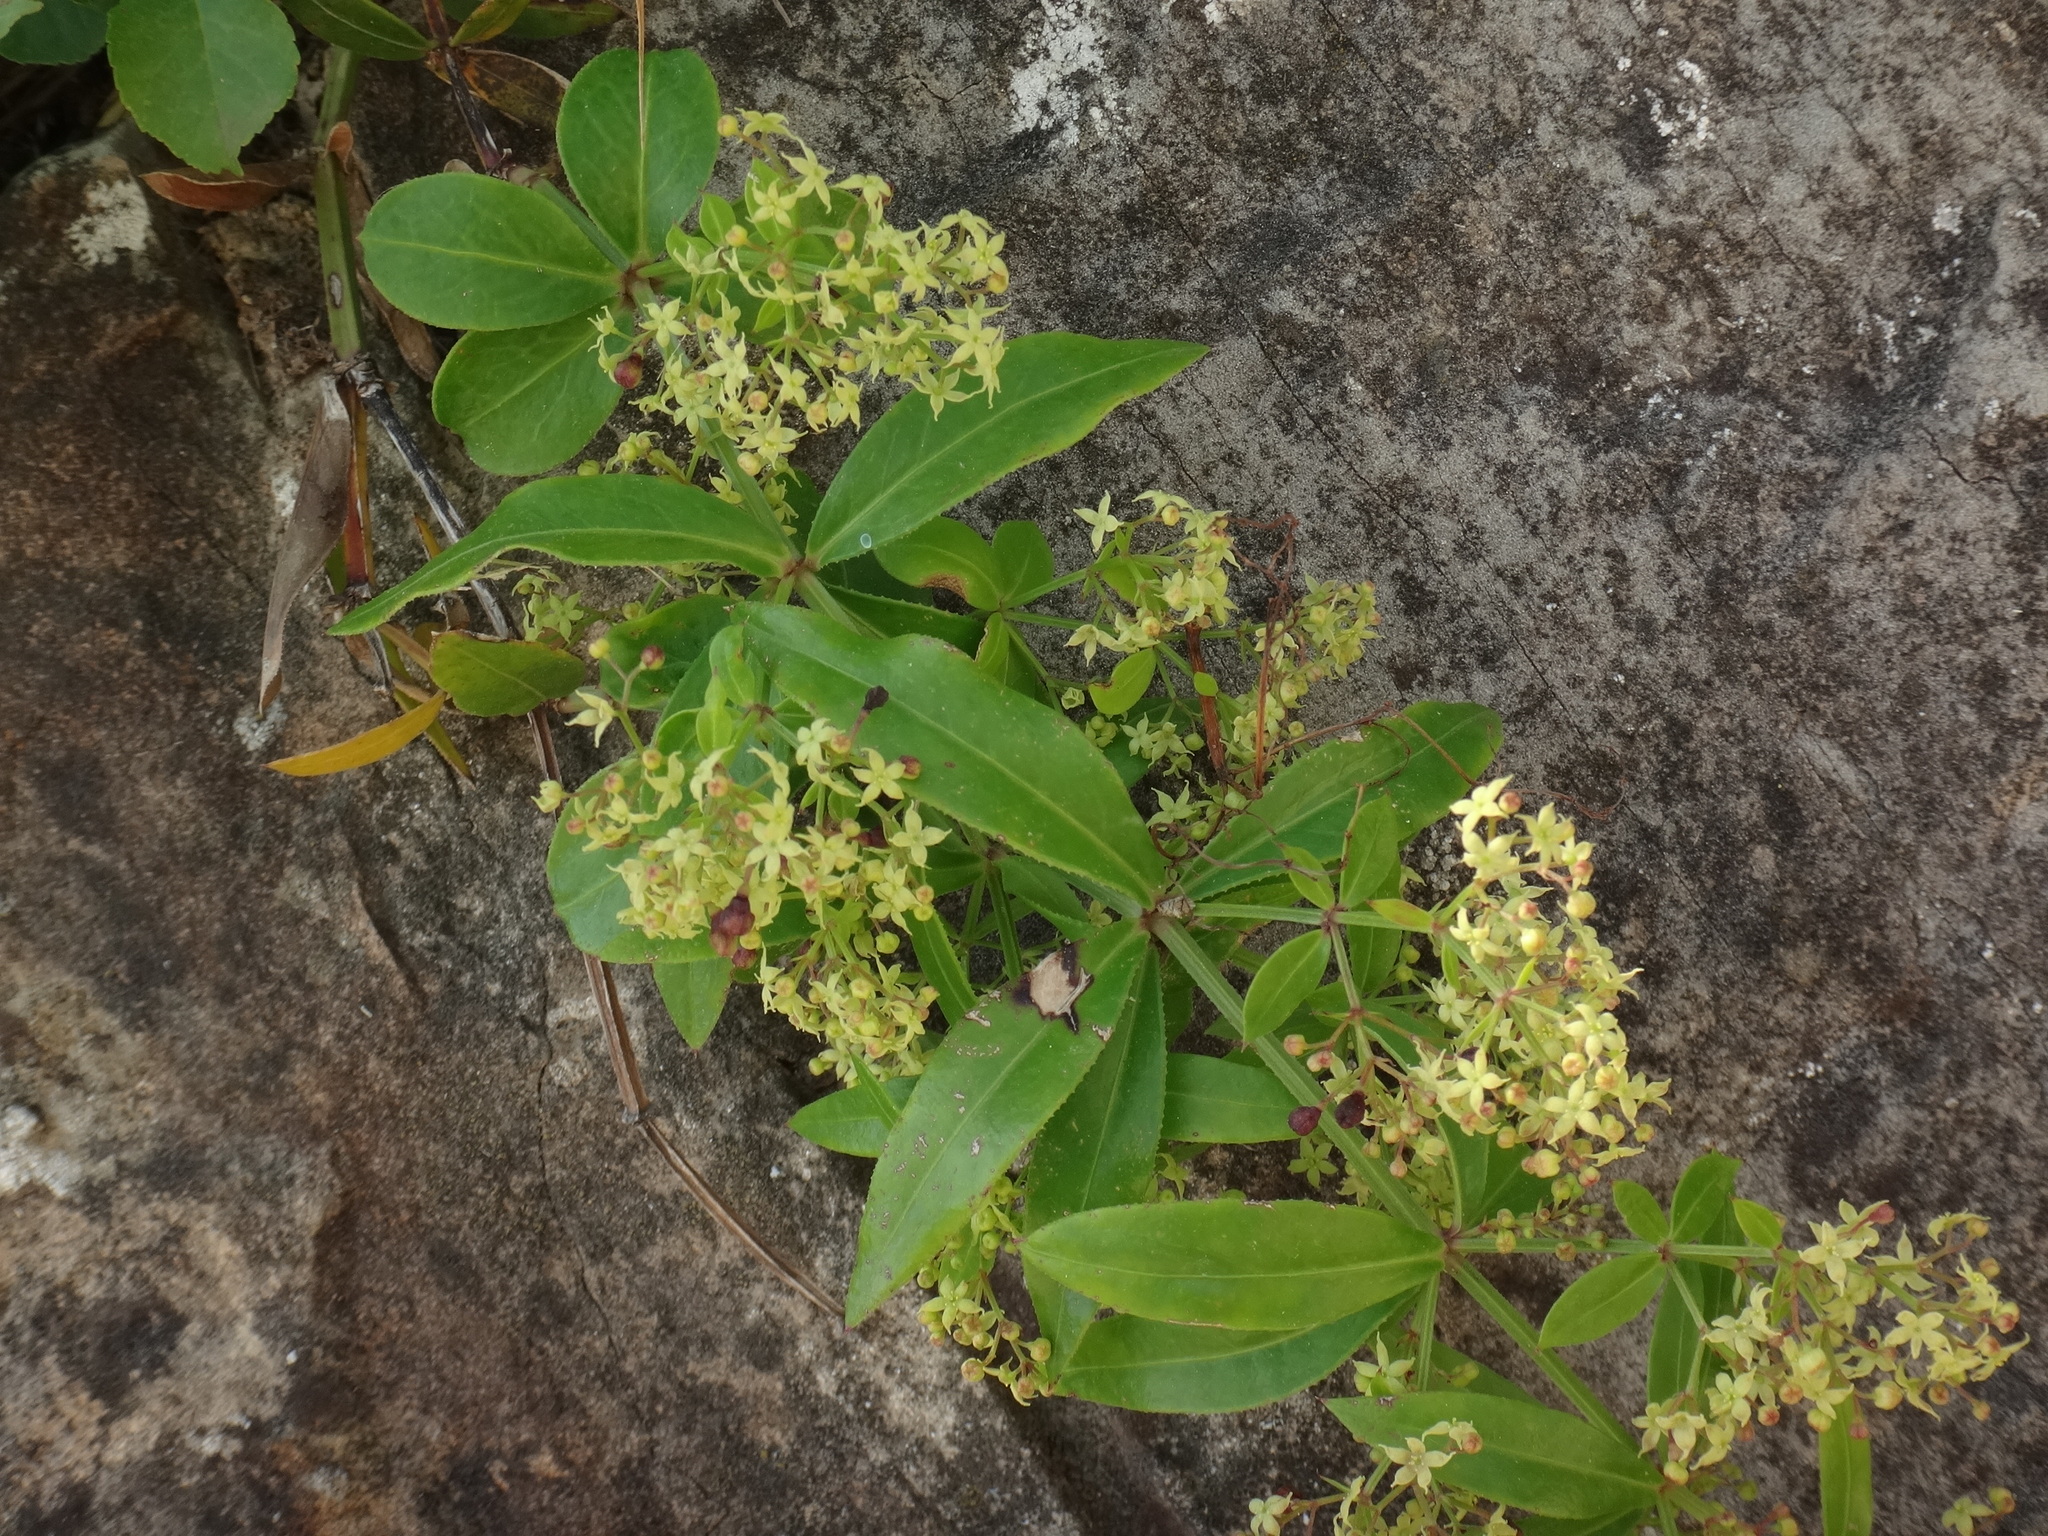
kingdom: Plantae
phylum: Tracheophyta
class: Magnoliopsida
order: Gentianales
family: Rubiaceae
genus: Rubia
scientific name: Rubia peregrina
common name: Wild madder
